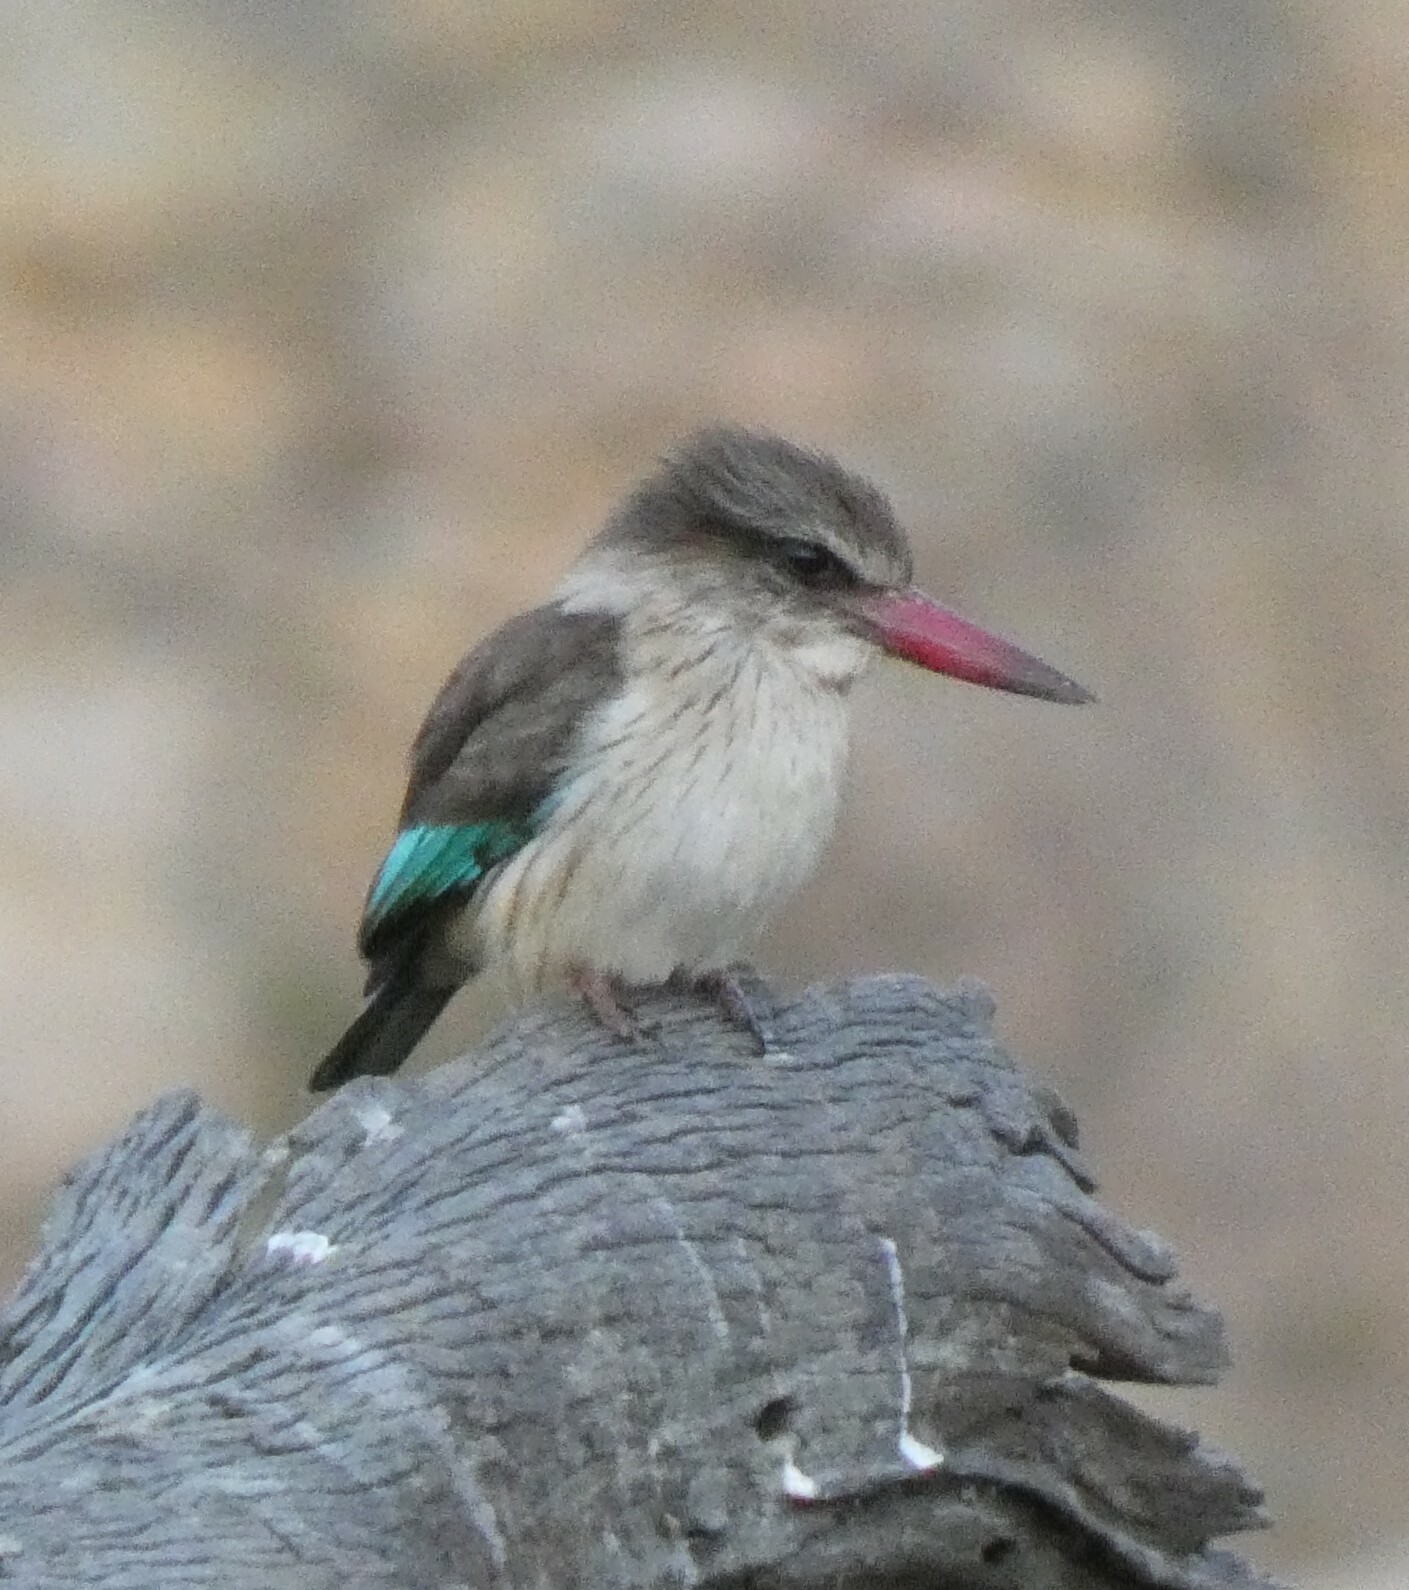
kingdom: Animalia
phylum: Chordata
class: Aves
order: Coraciiformes
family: Alcedinidae
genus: Halcyon
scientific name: Halcyon albiventris
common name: Brown-hooded kingfisher
